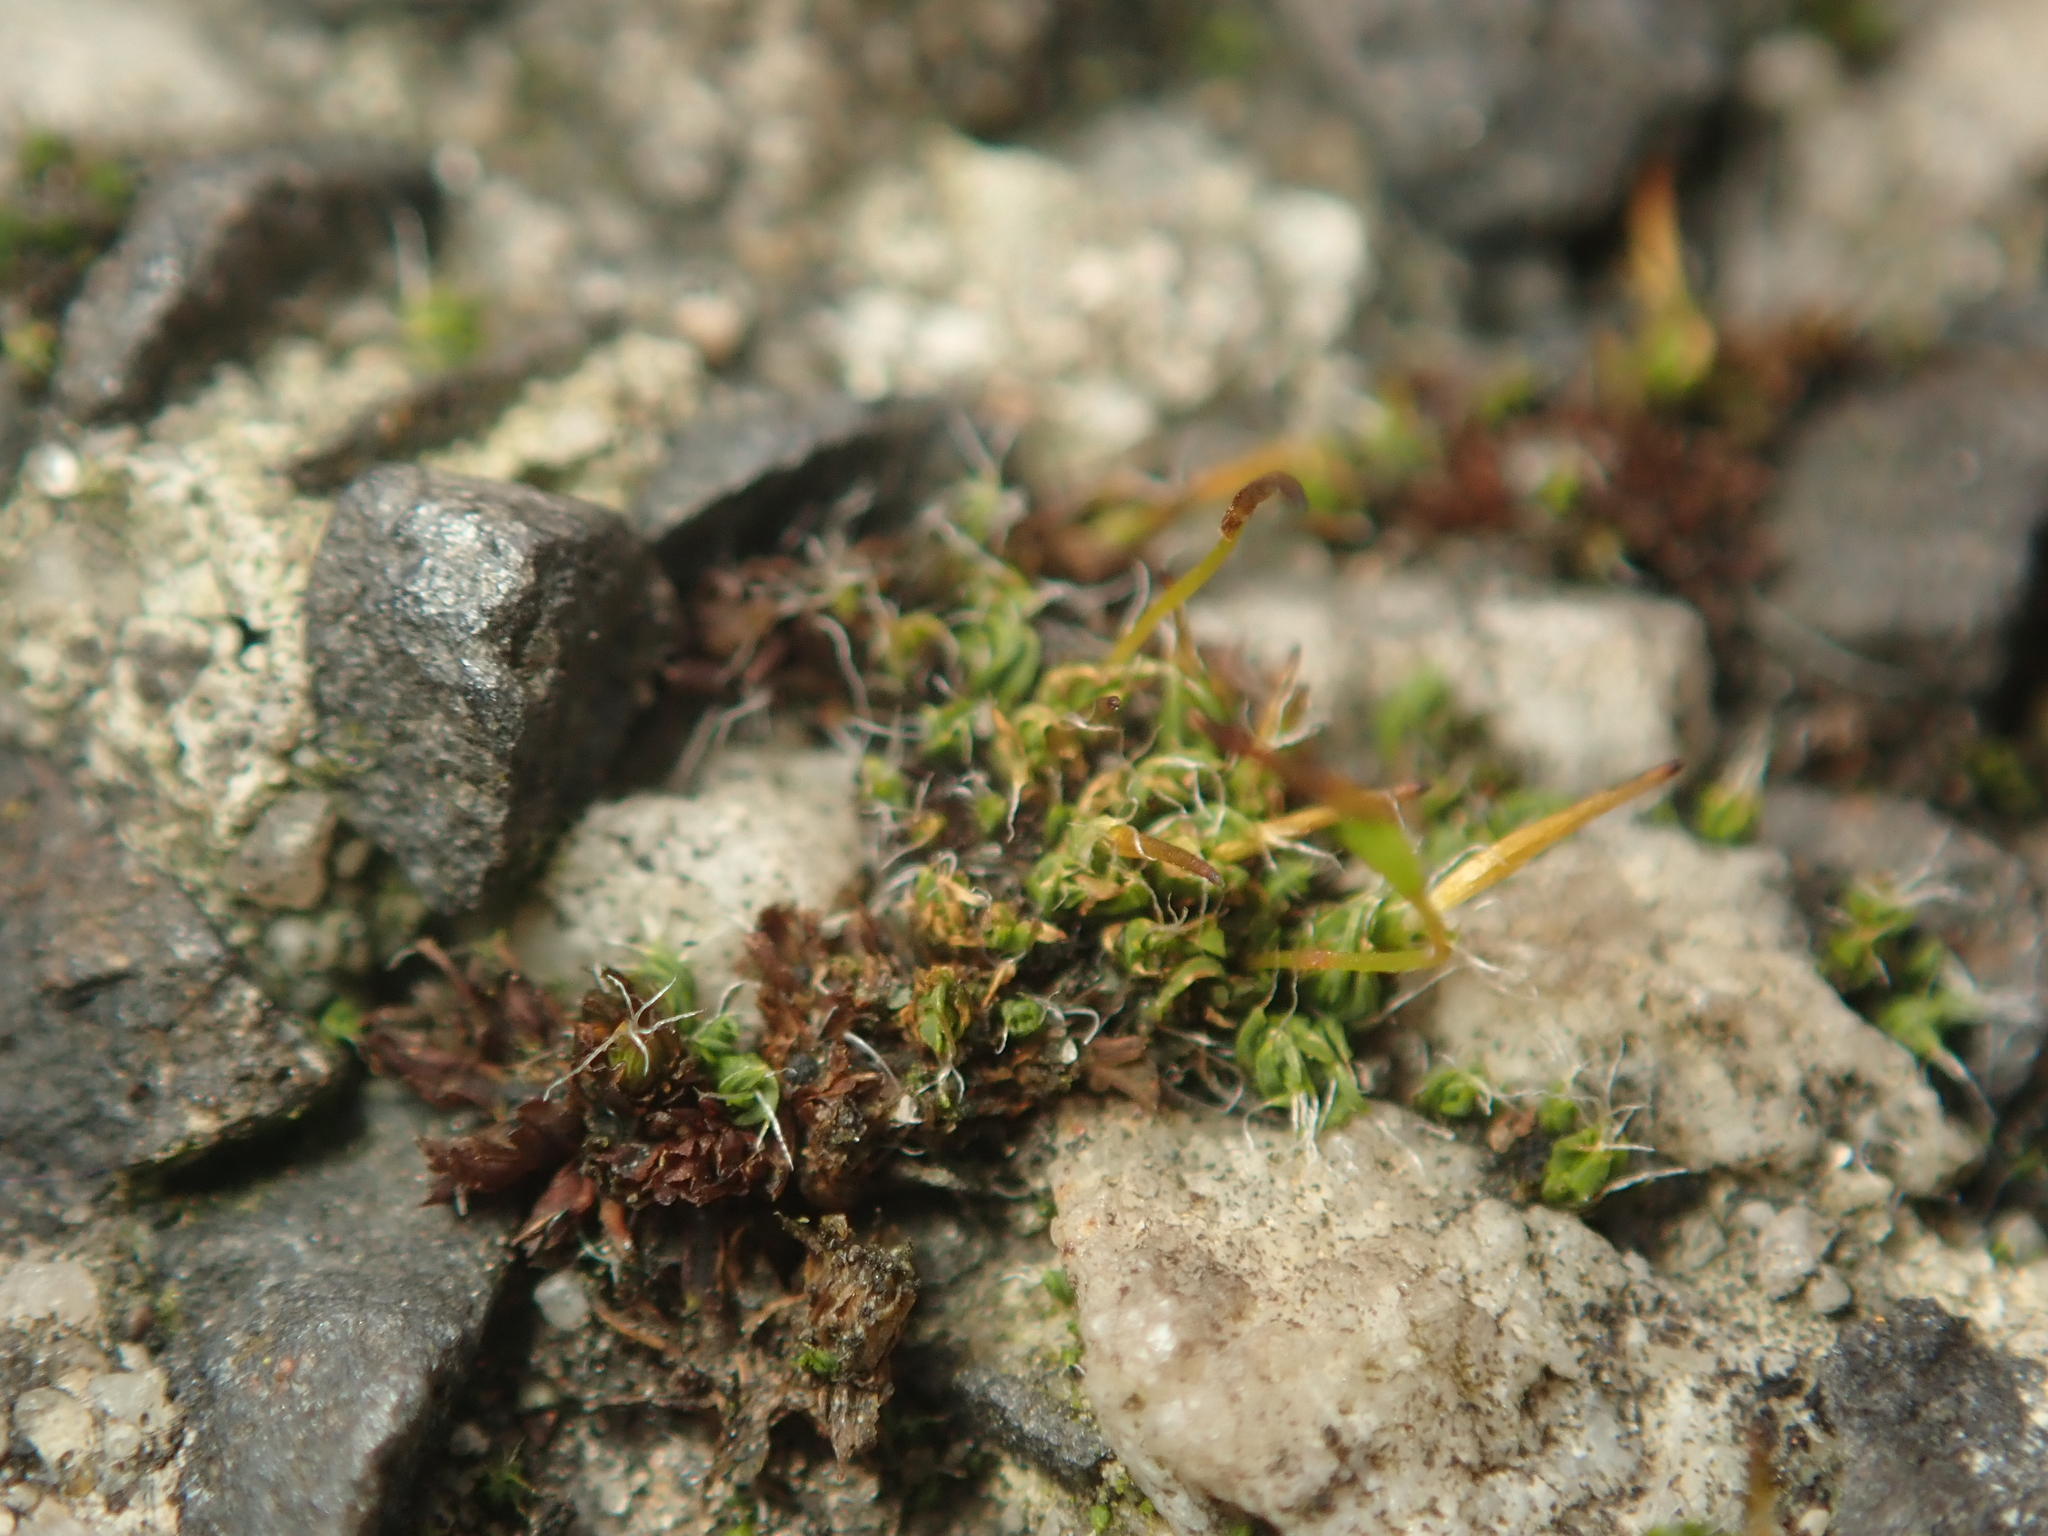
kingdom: Plantae
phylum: Bryophyta
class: Bryopsida
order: Pottiales
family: Pottiaceae
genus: Tortula
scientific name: Tortula muralis
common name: Wall screw-moss
